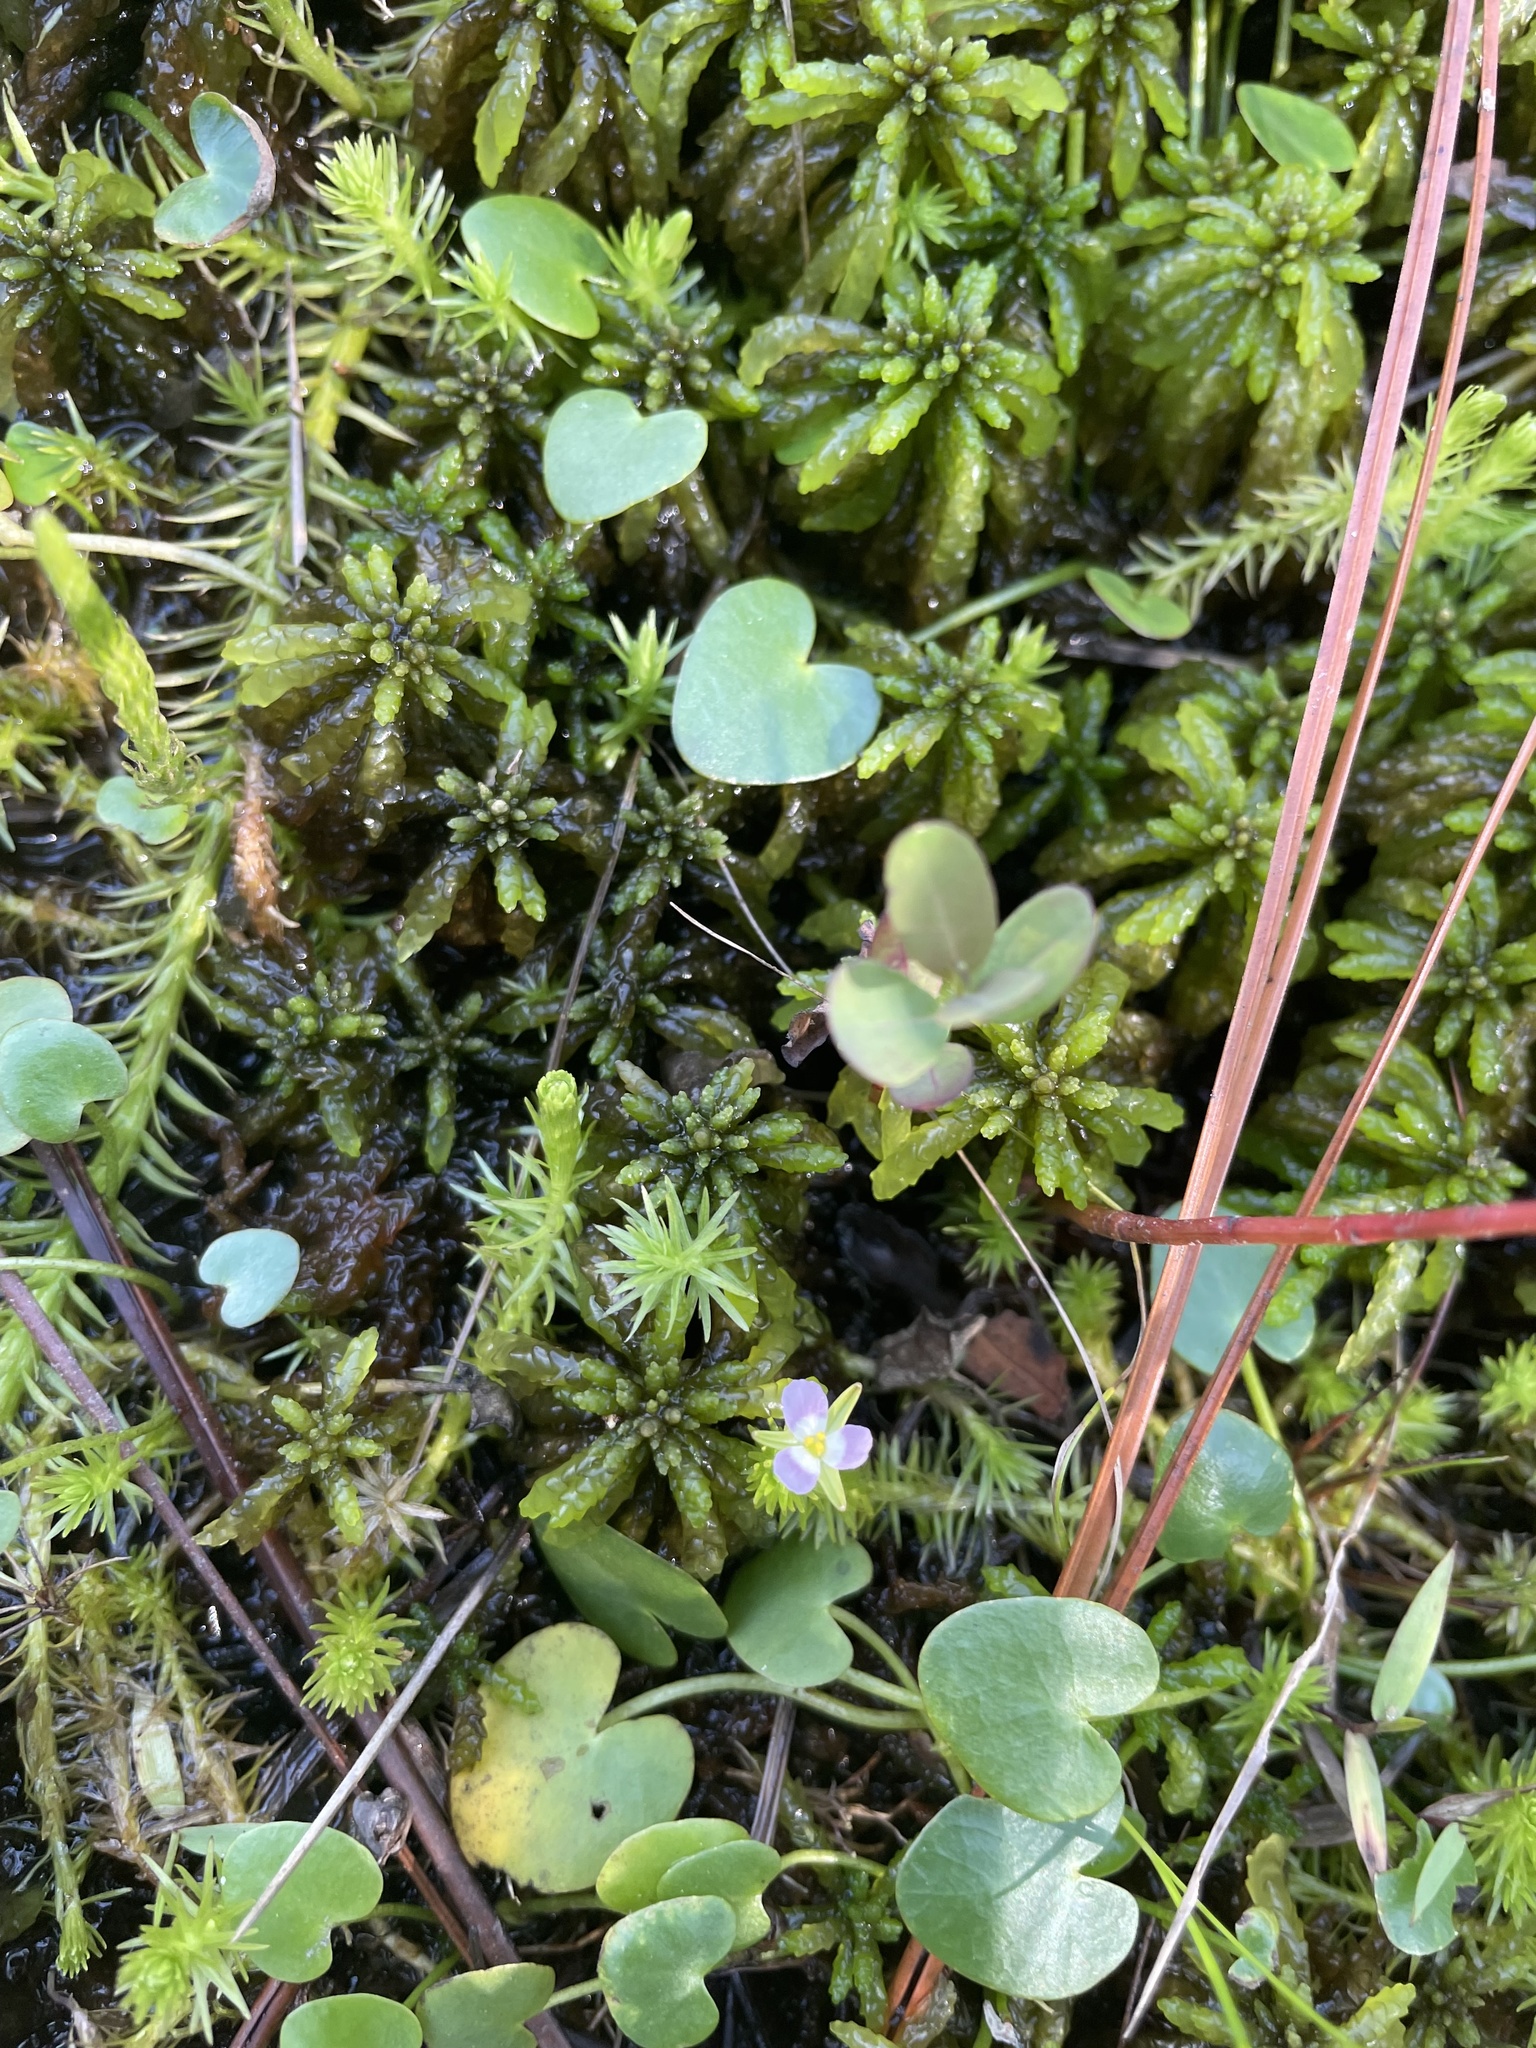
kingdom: Plantae
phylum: Tracheophyta
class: Liliopsida
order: Poales
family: Mayacaceae
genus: Mayaca
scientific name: Mayaca fluviatilis
